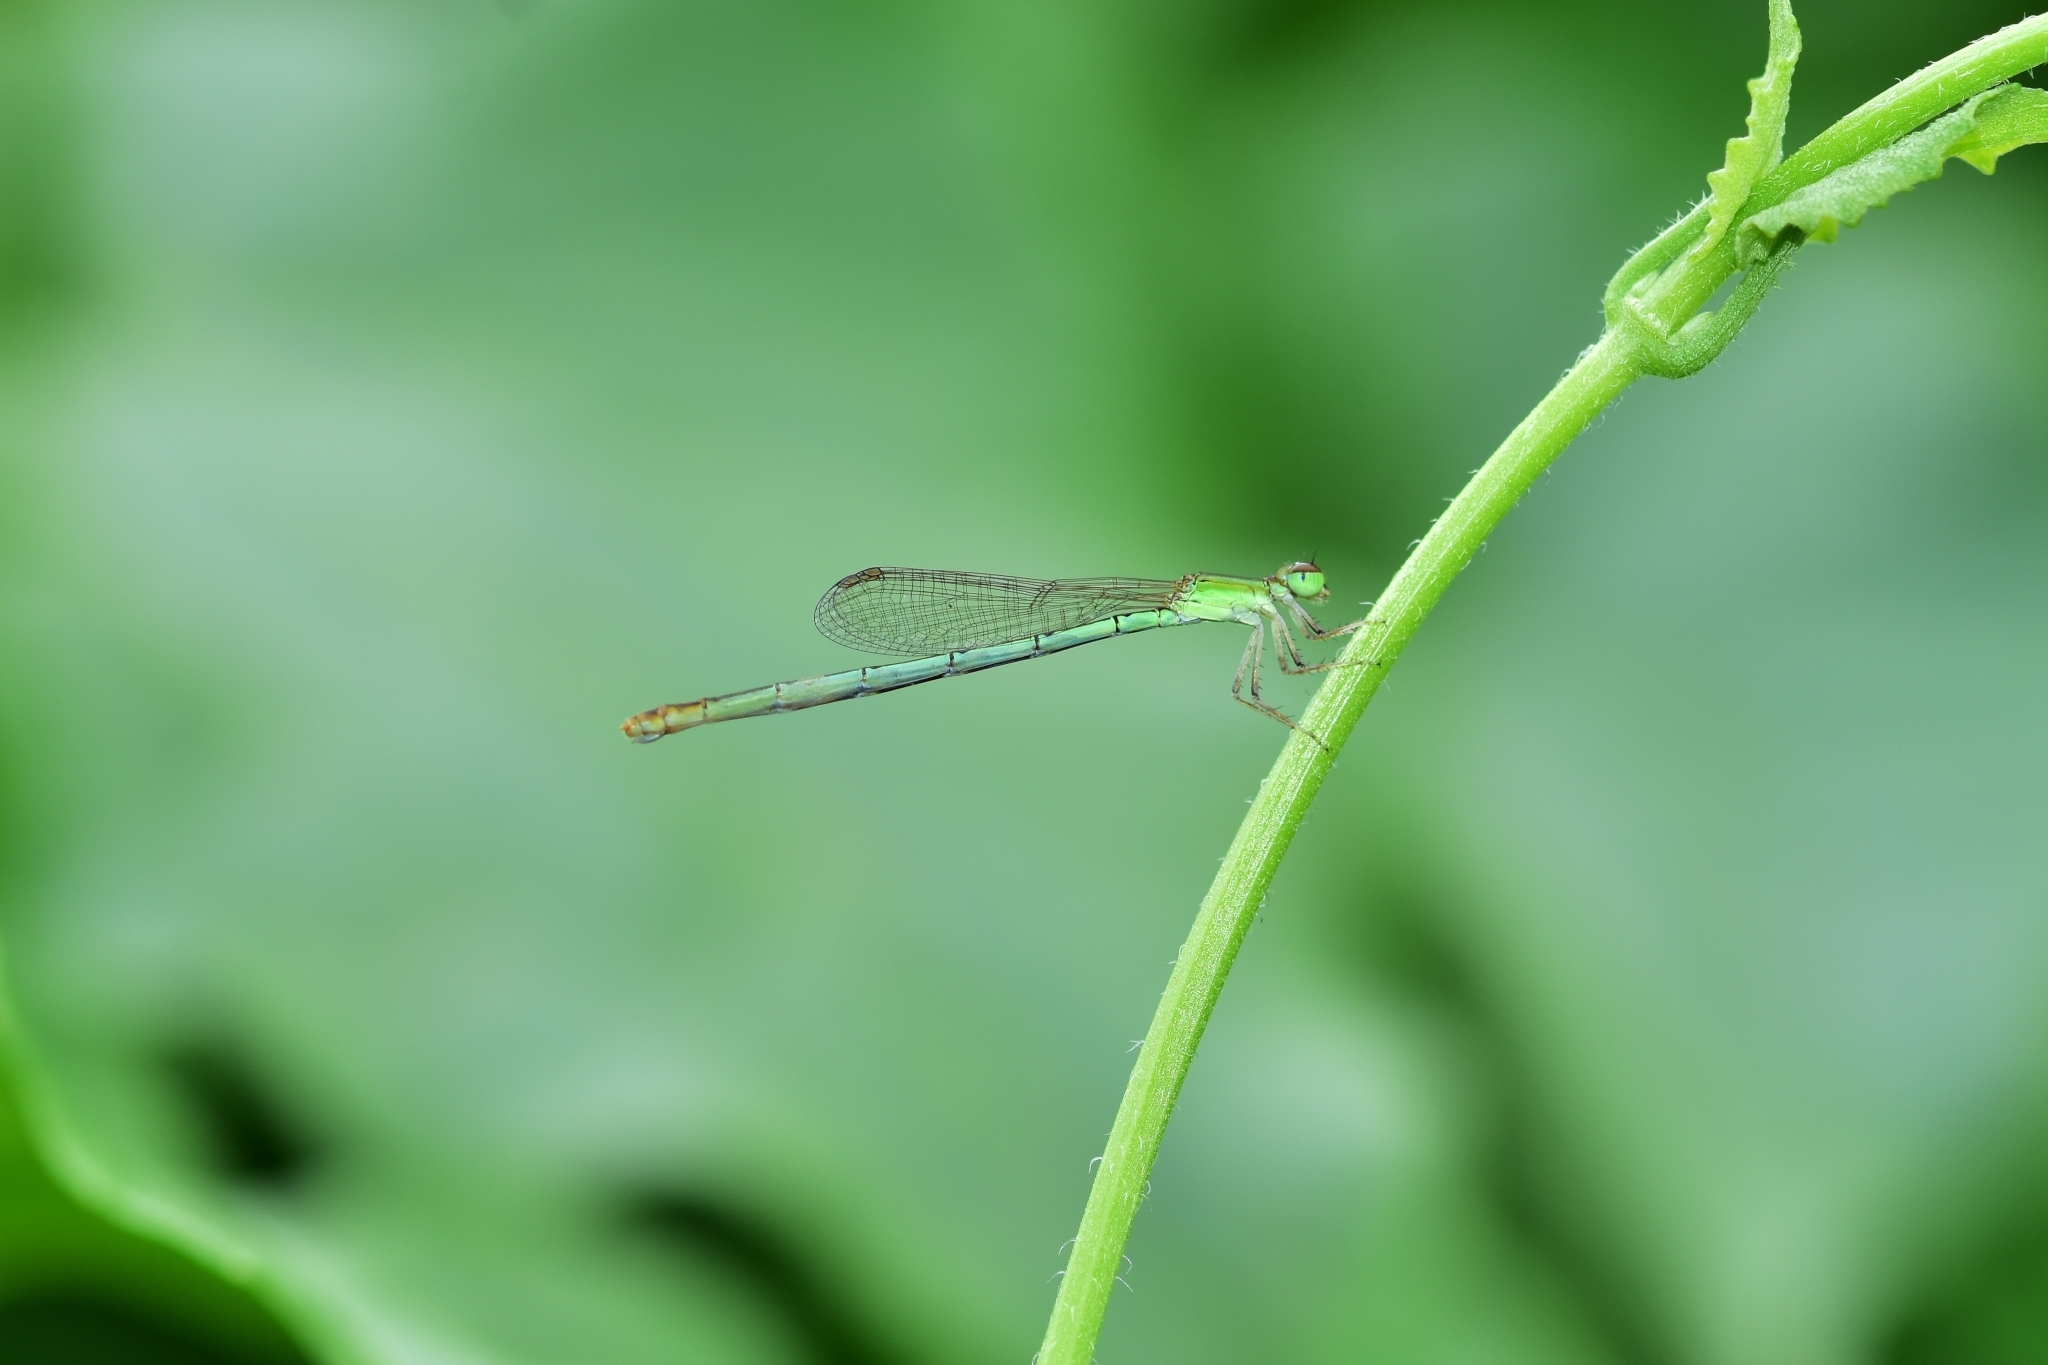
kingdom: Animalia
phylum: Arthropoda
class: Insecta
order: Odonata
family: Coenagrionidae
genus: Agriocnemis
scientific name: Agriocnemis pygmaea
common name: Pygmy wisp
